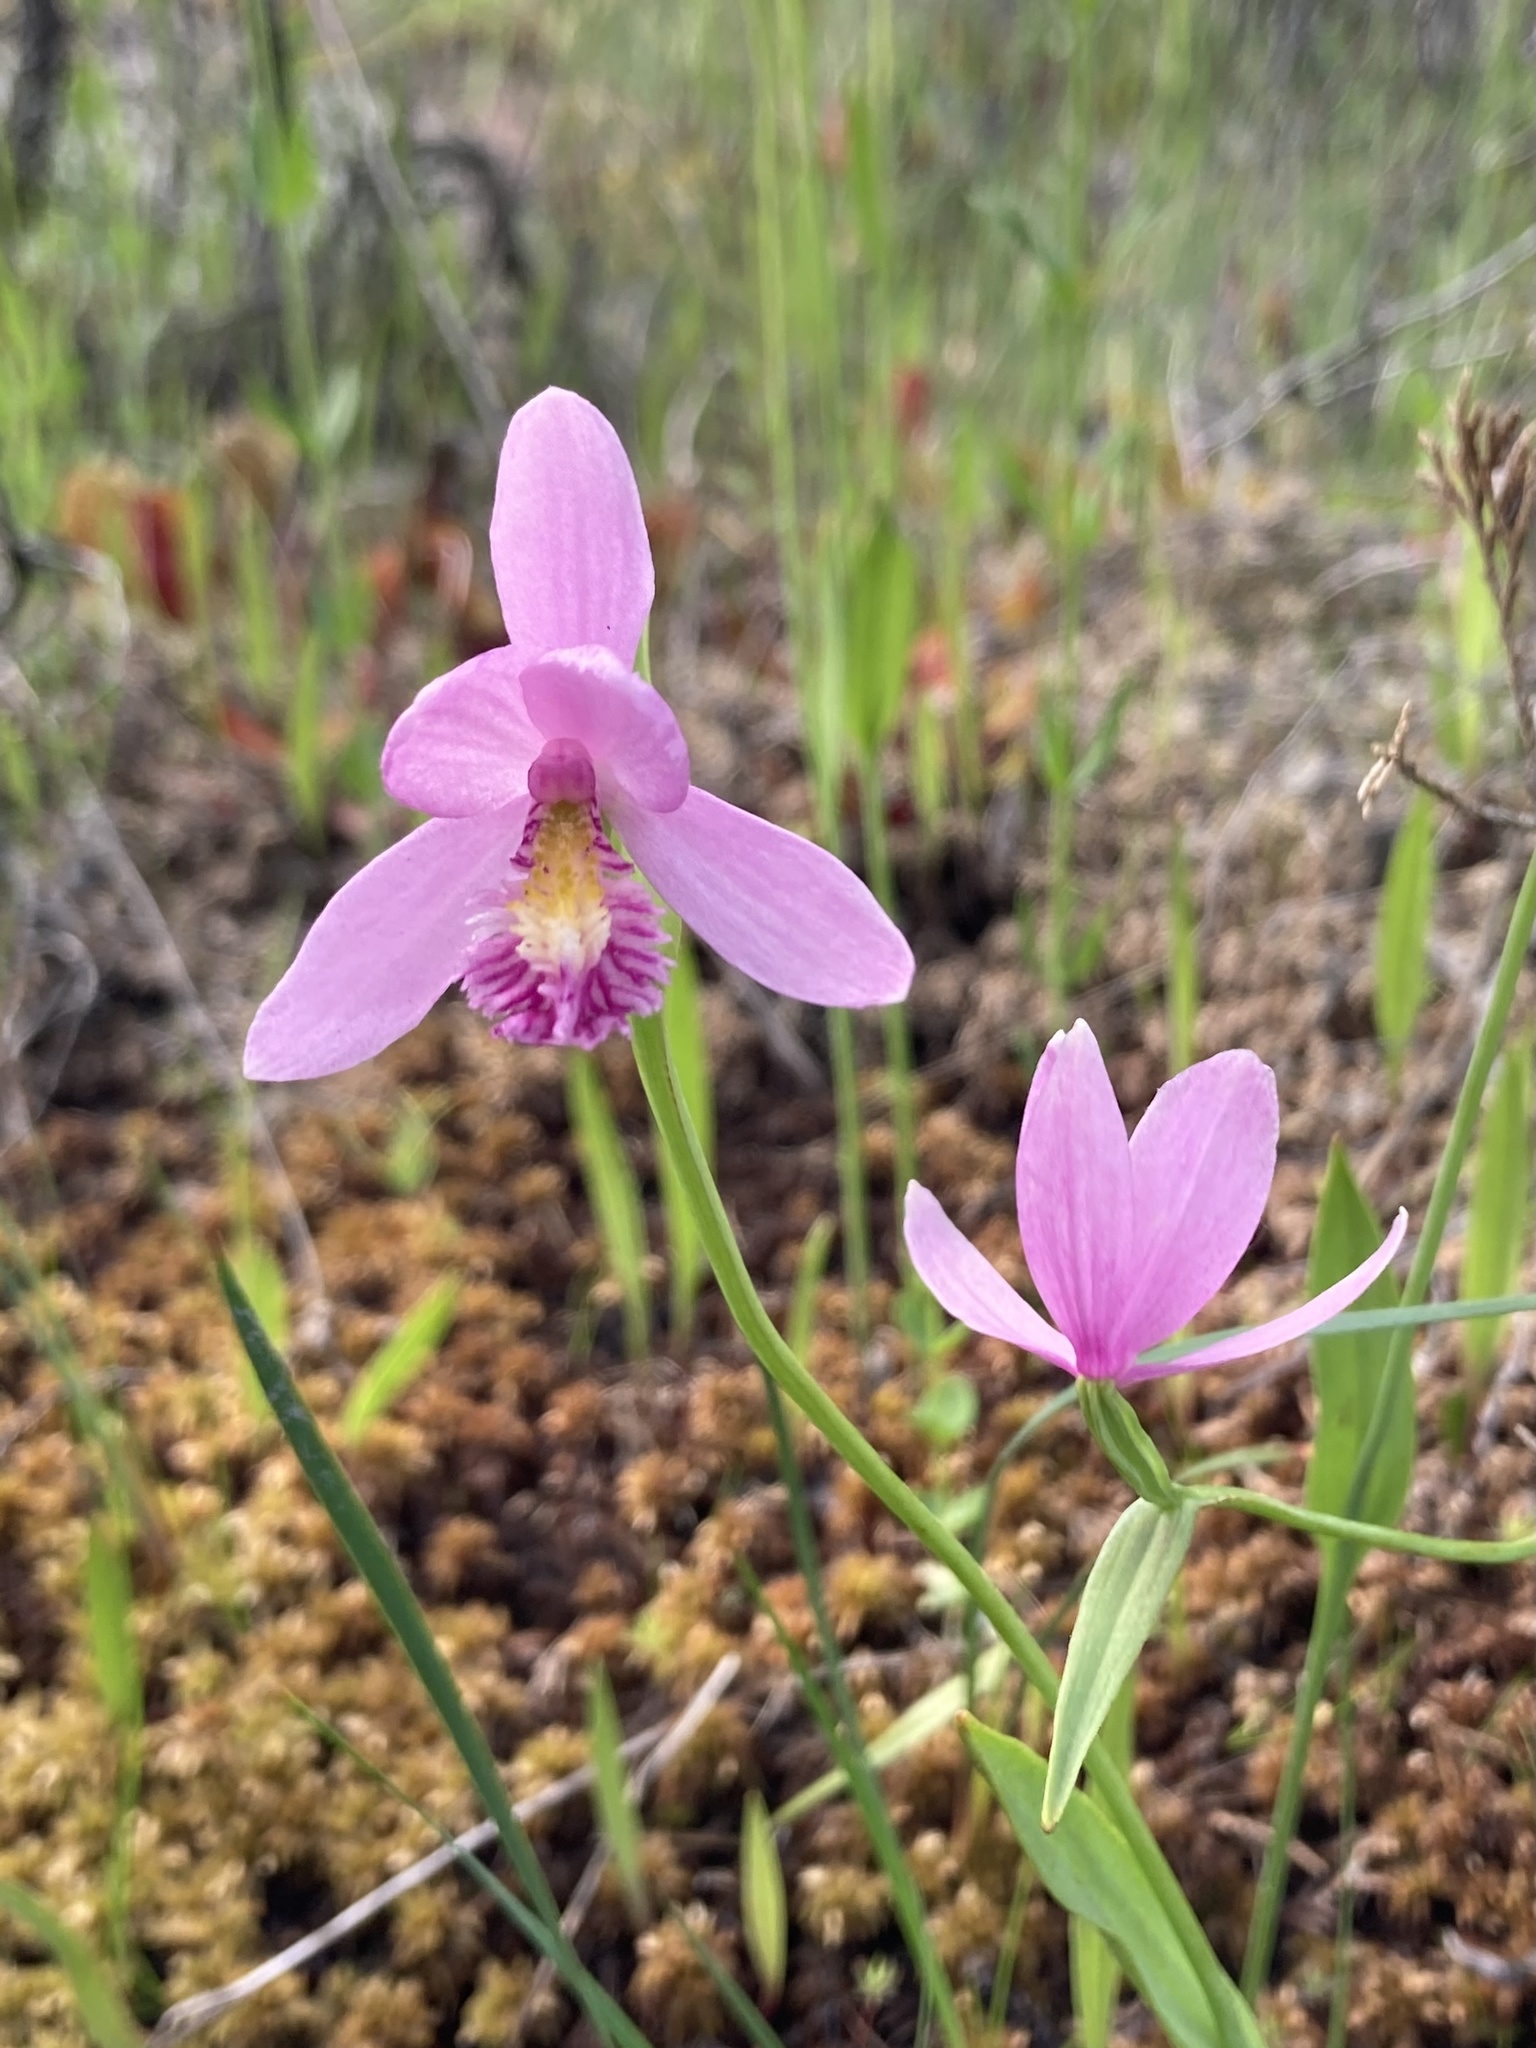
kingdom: Plantae
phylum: Tracheophyta
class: Liliopsida
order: Asparagales
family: Orchidaceae
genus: Pogonia
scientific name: Pogonia ophioglossoides
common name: Rose pogonia
